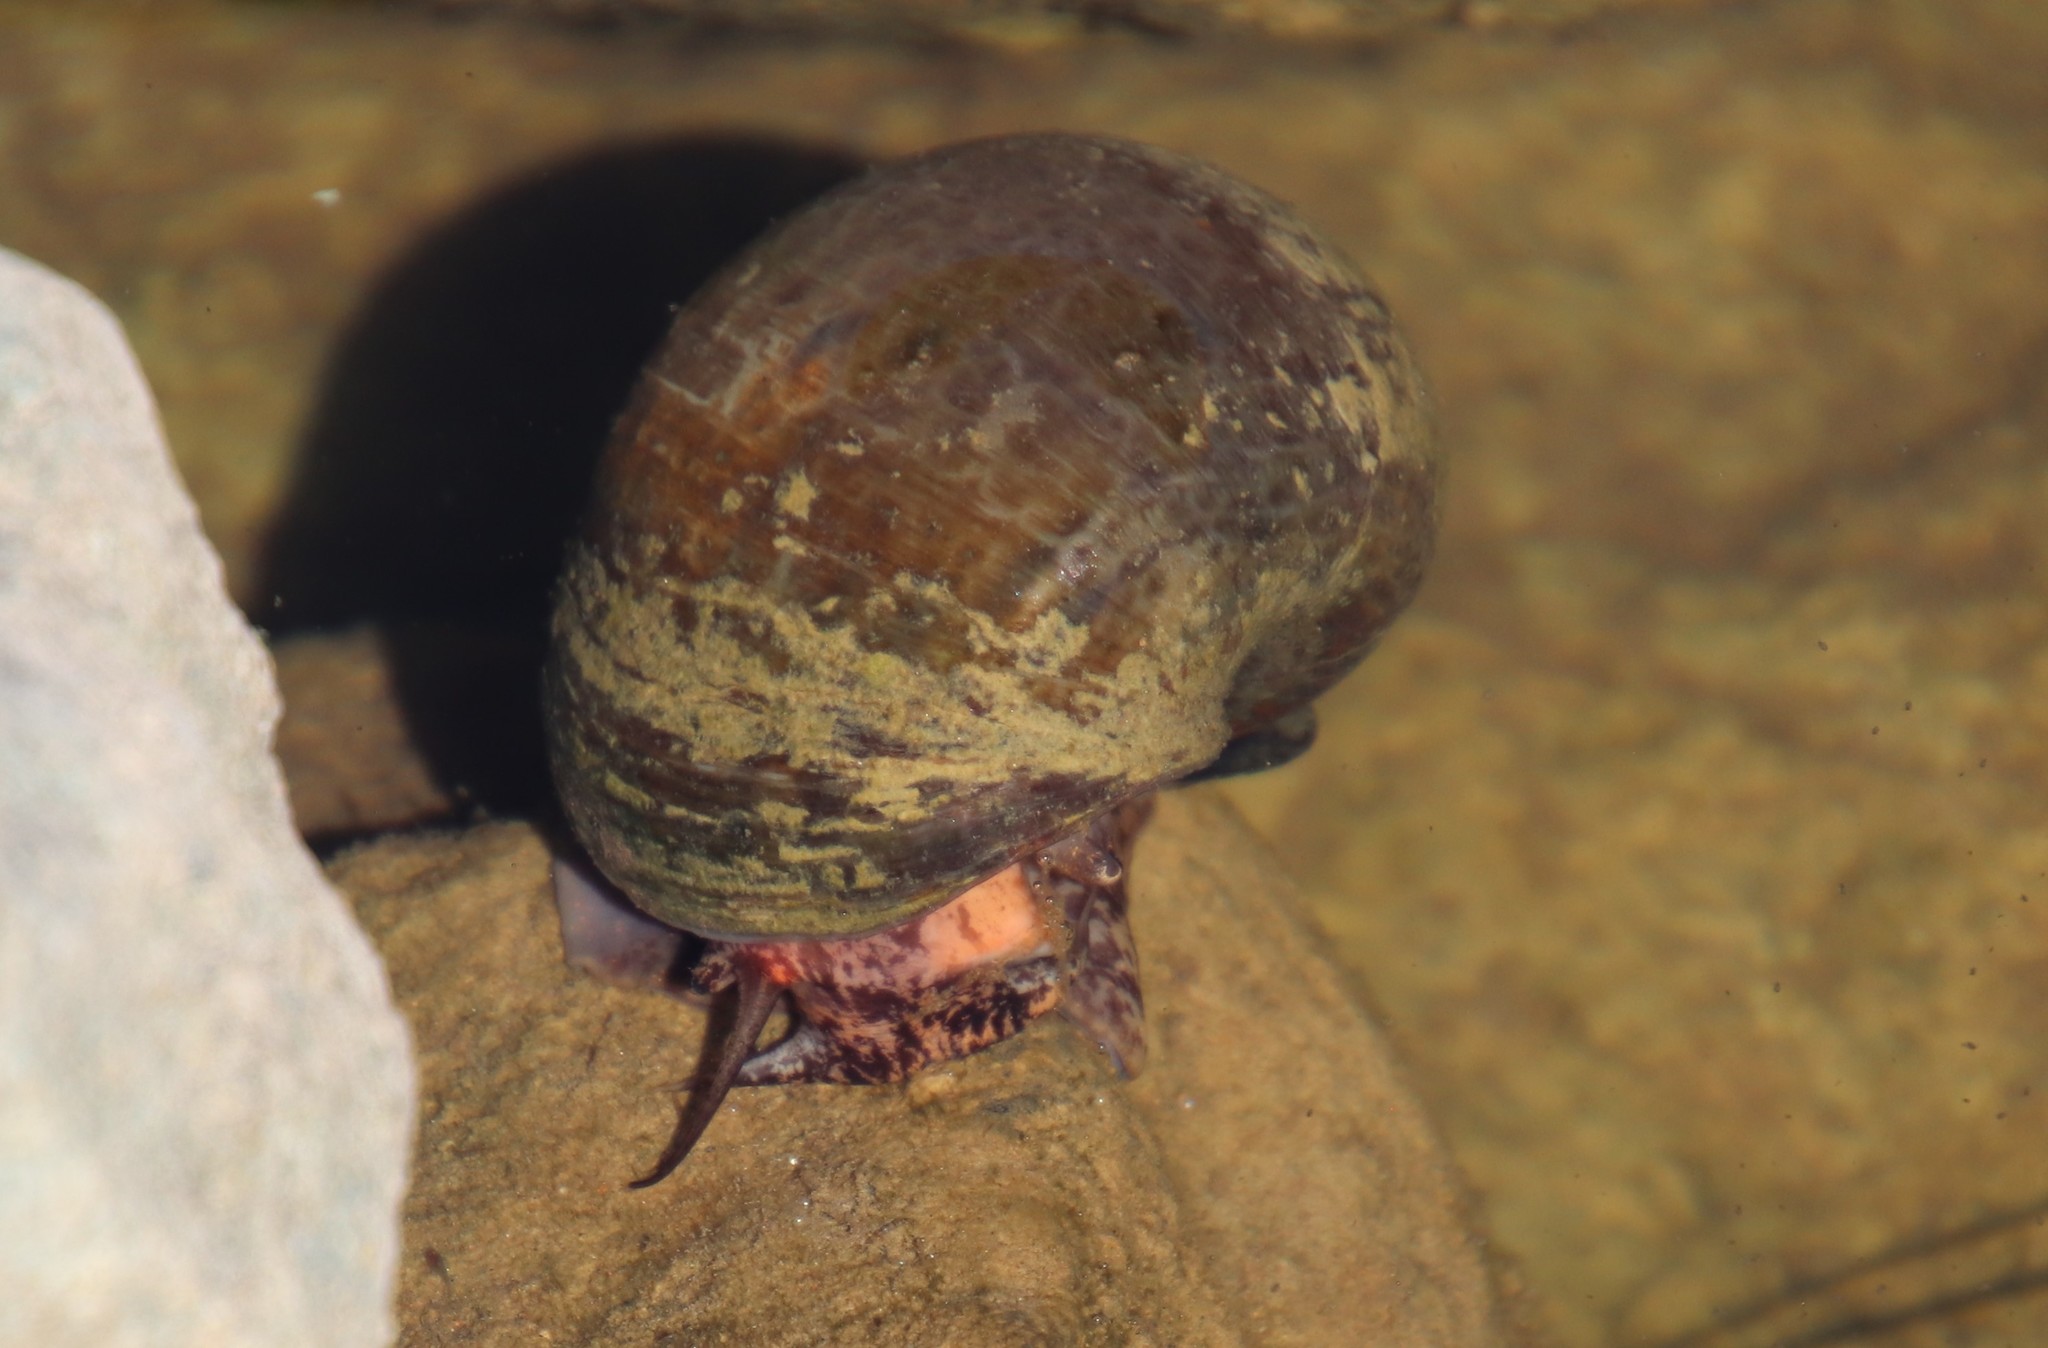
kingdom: Animalia
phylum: Mollusca
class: Gastropoda
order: Architaenioglossa
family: Ampullariidae
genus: Pomacea
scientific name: Pomacea canaliculata
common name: Channeled applesnail
